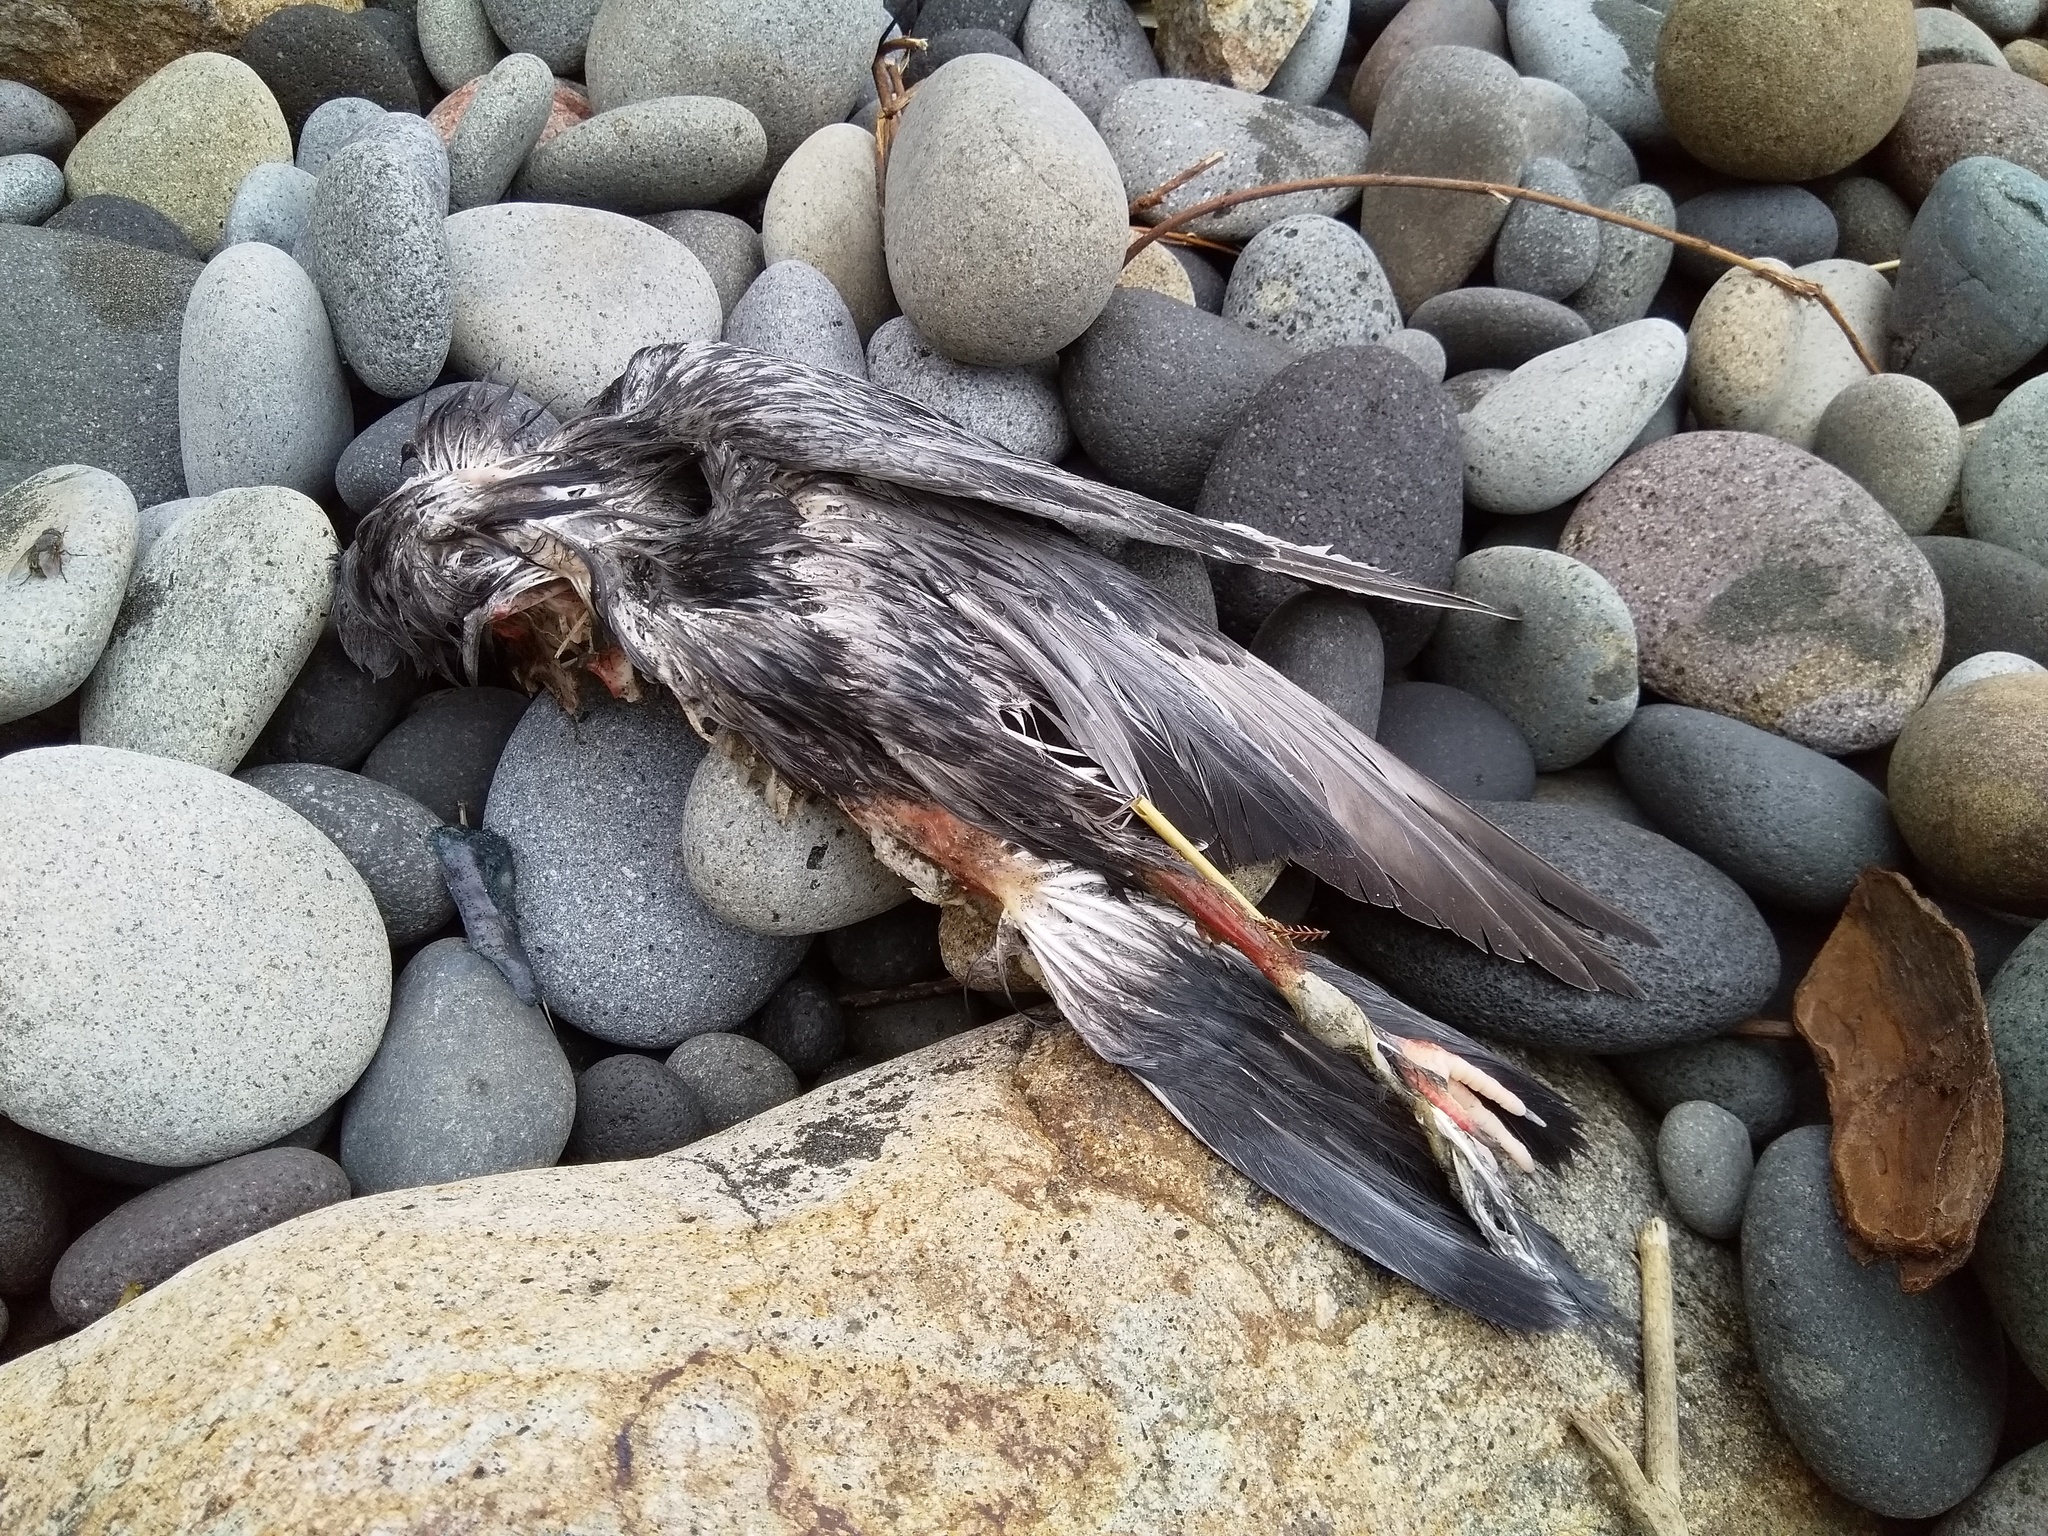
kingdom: Animalia
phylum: Chordata
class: Aves
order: Columbiformes
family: Columbidae
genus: Columba
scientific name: Columba livia
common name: Rock pigeon
